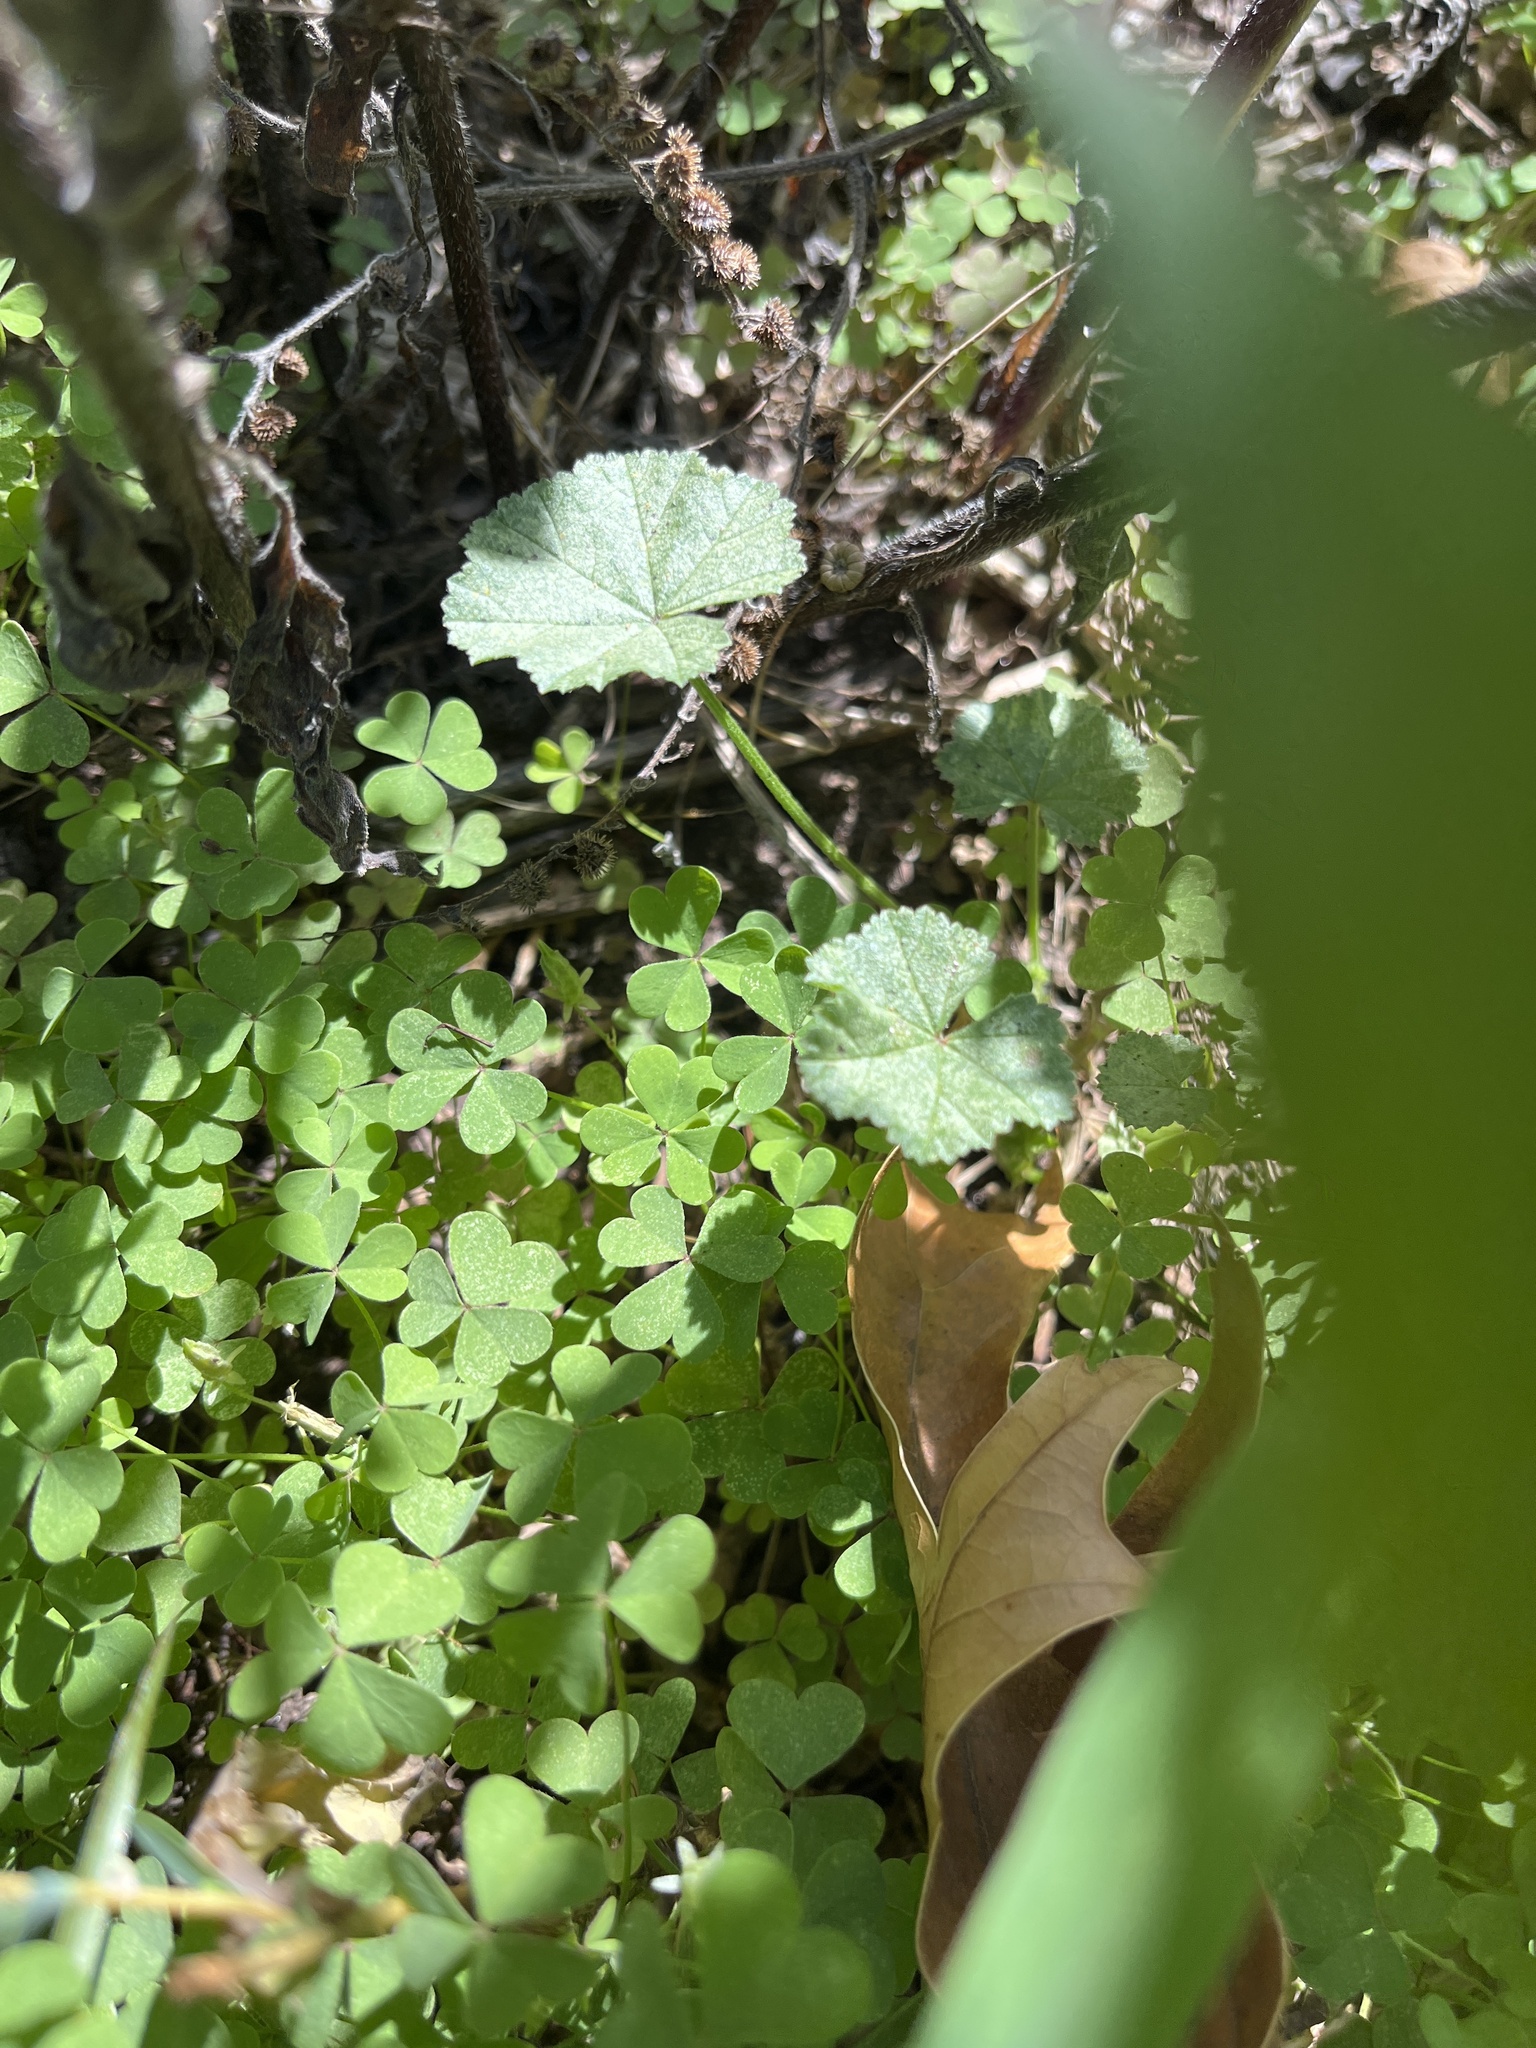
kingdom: Plantae
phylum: Tracheophyta
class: Magnoliopsida
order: Malvales
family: Malvaceae
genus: Malva
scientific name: Malva neglecta
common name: Common mallow
